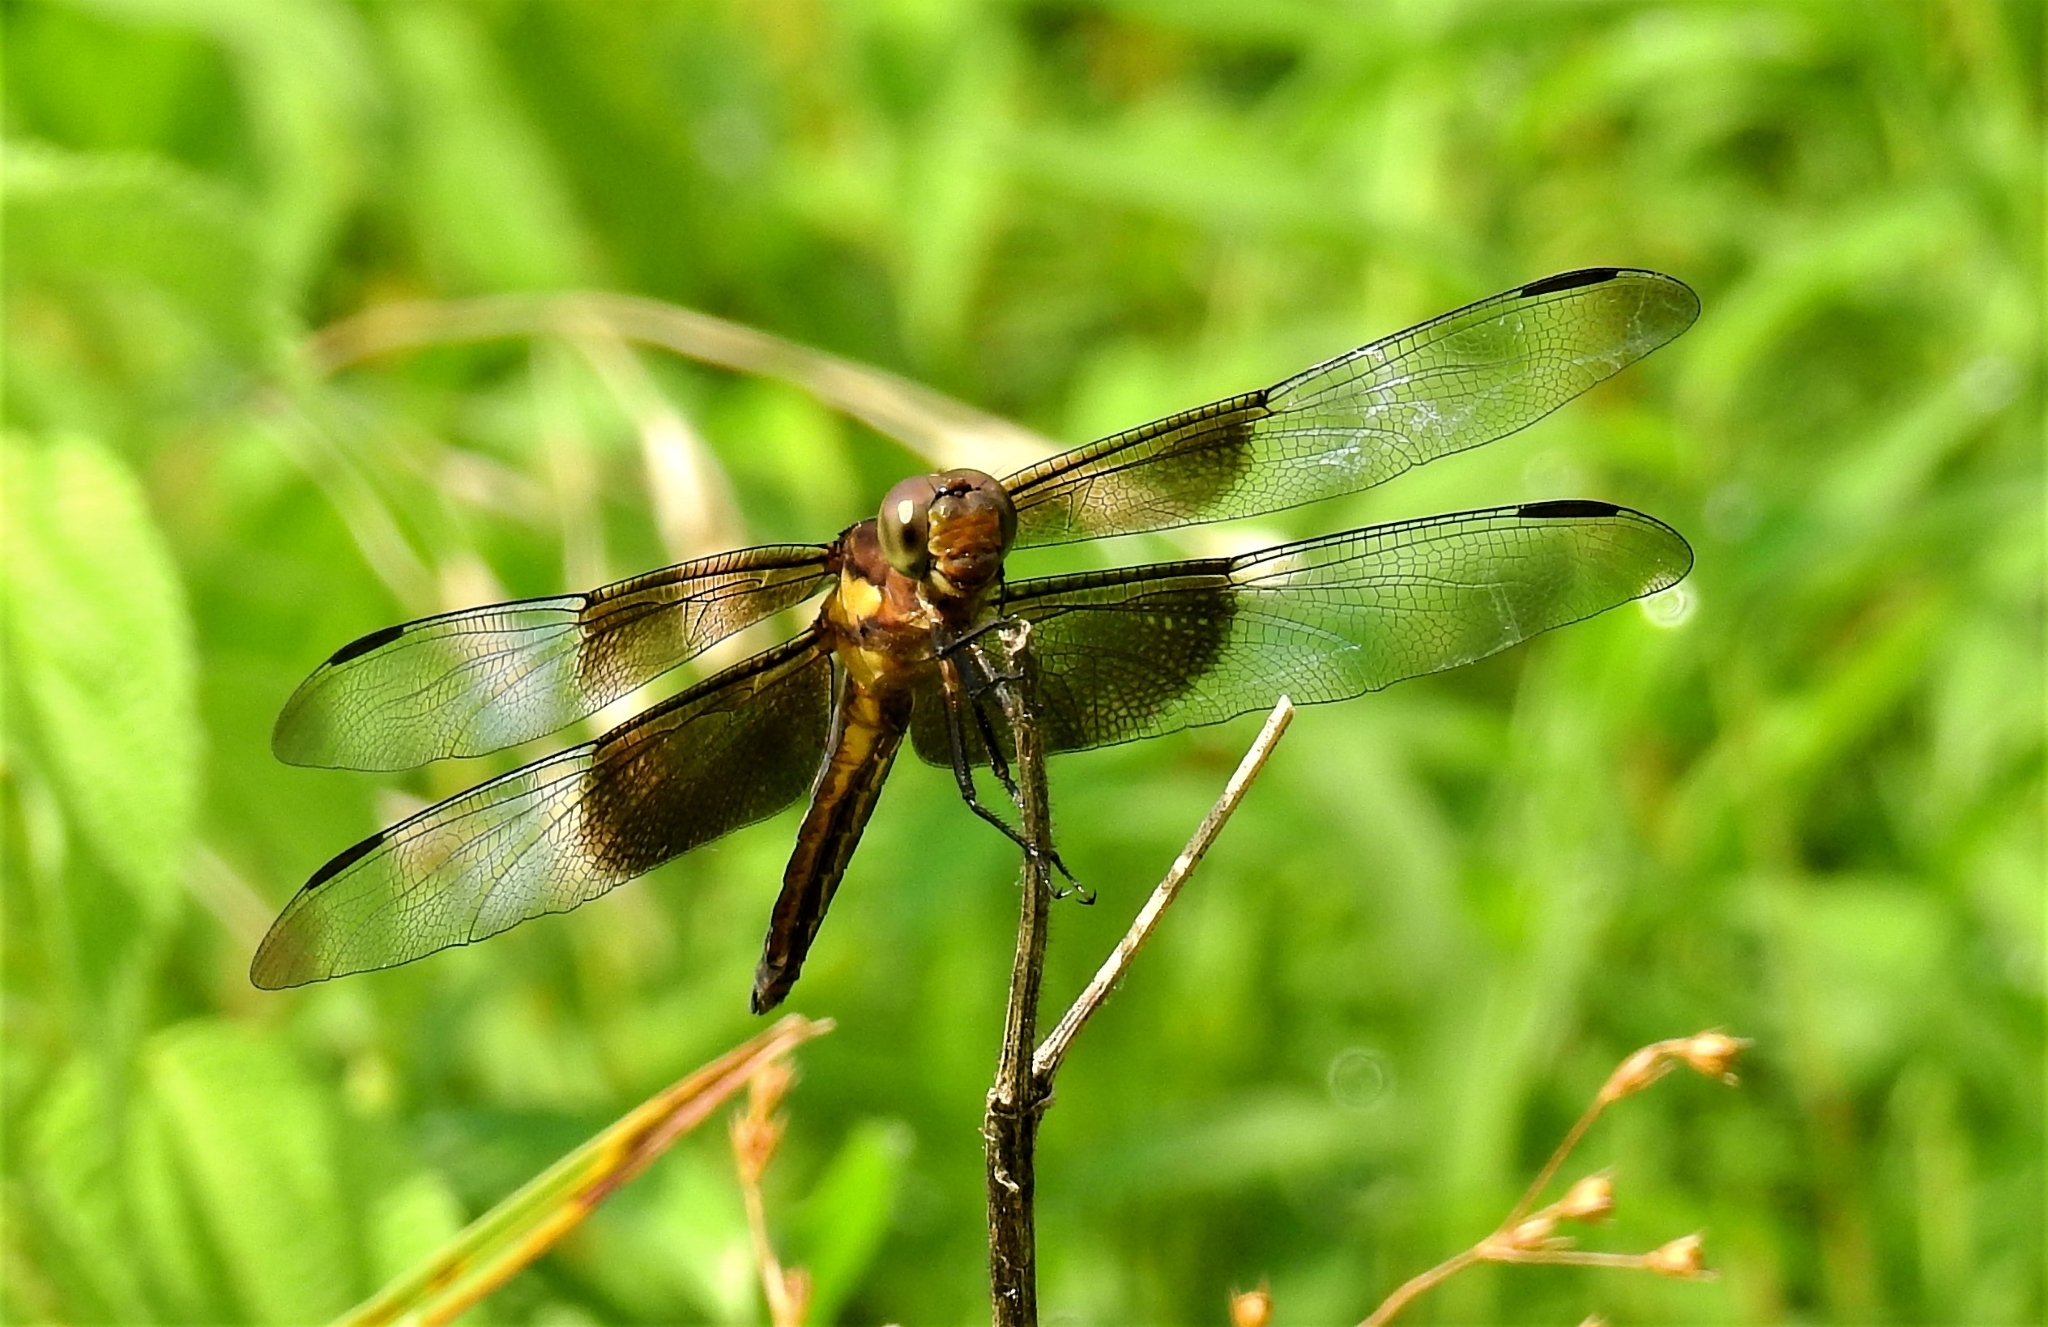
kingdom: Animalia
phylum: Arthropoda
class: Insecta
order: Odonata
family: Libellulidae
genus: Libellula
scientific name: Libellula luctuosa
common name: Widow skimmer
